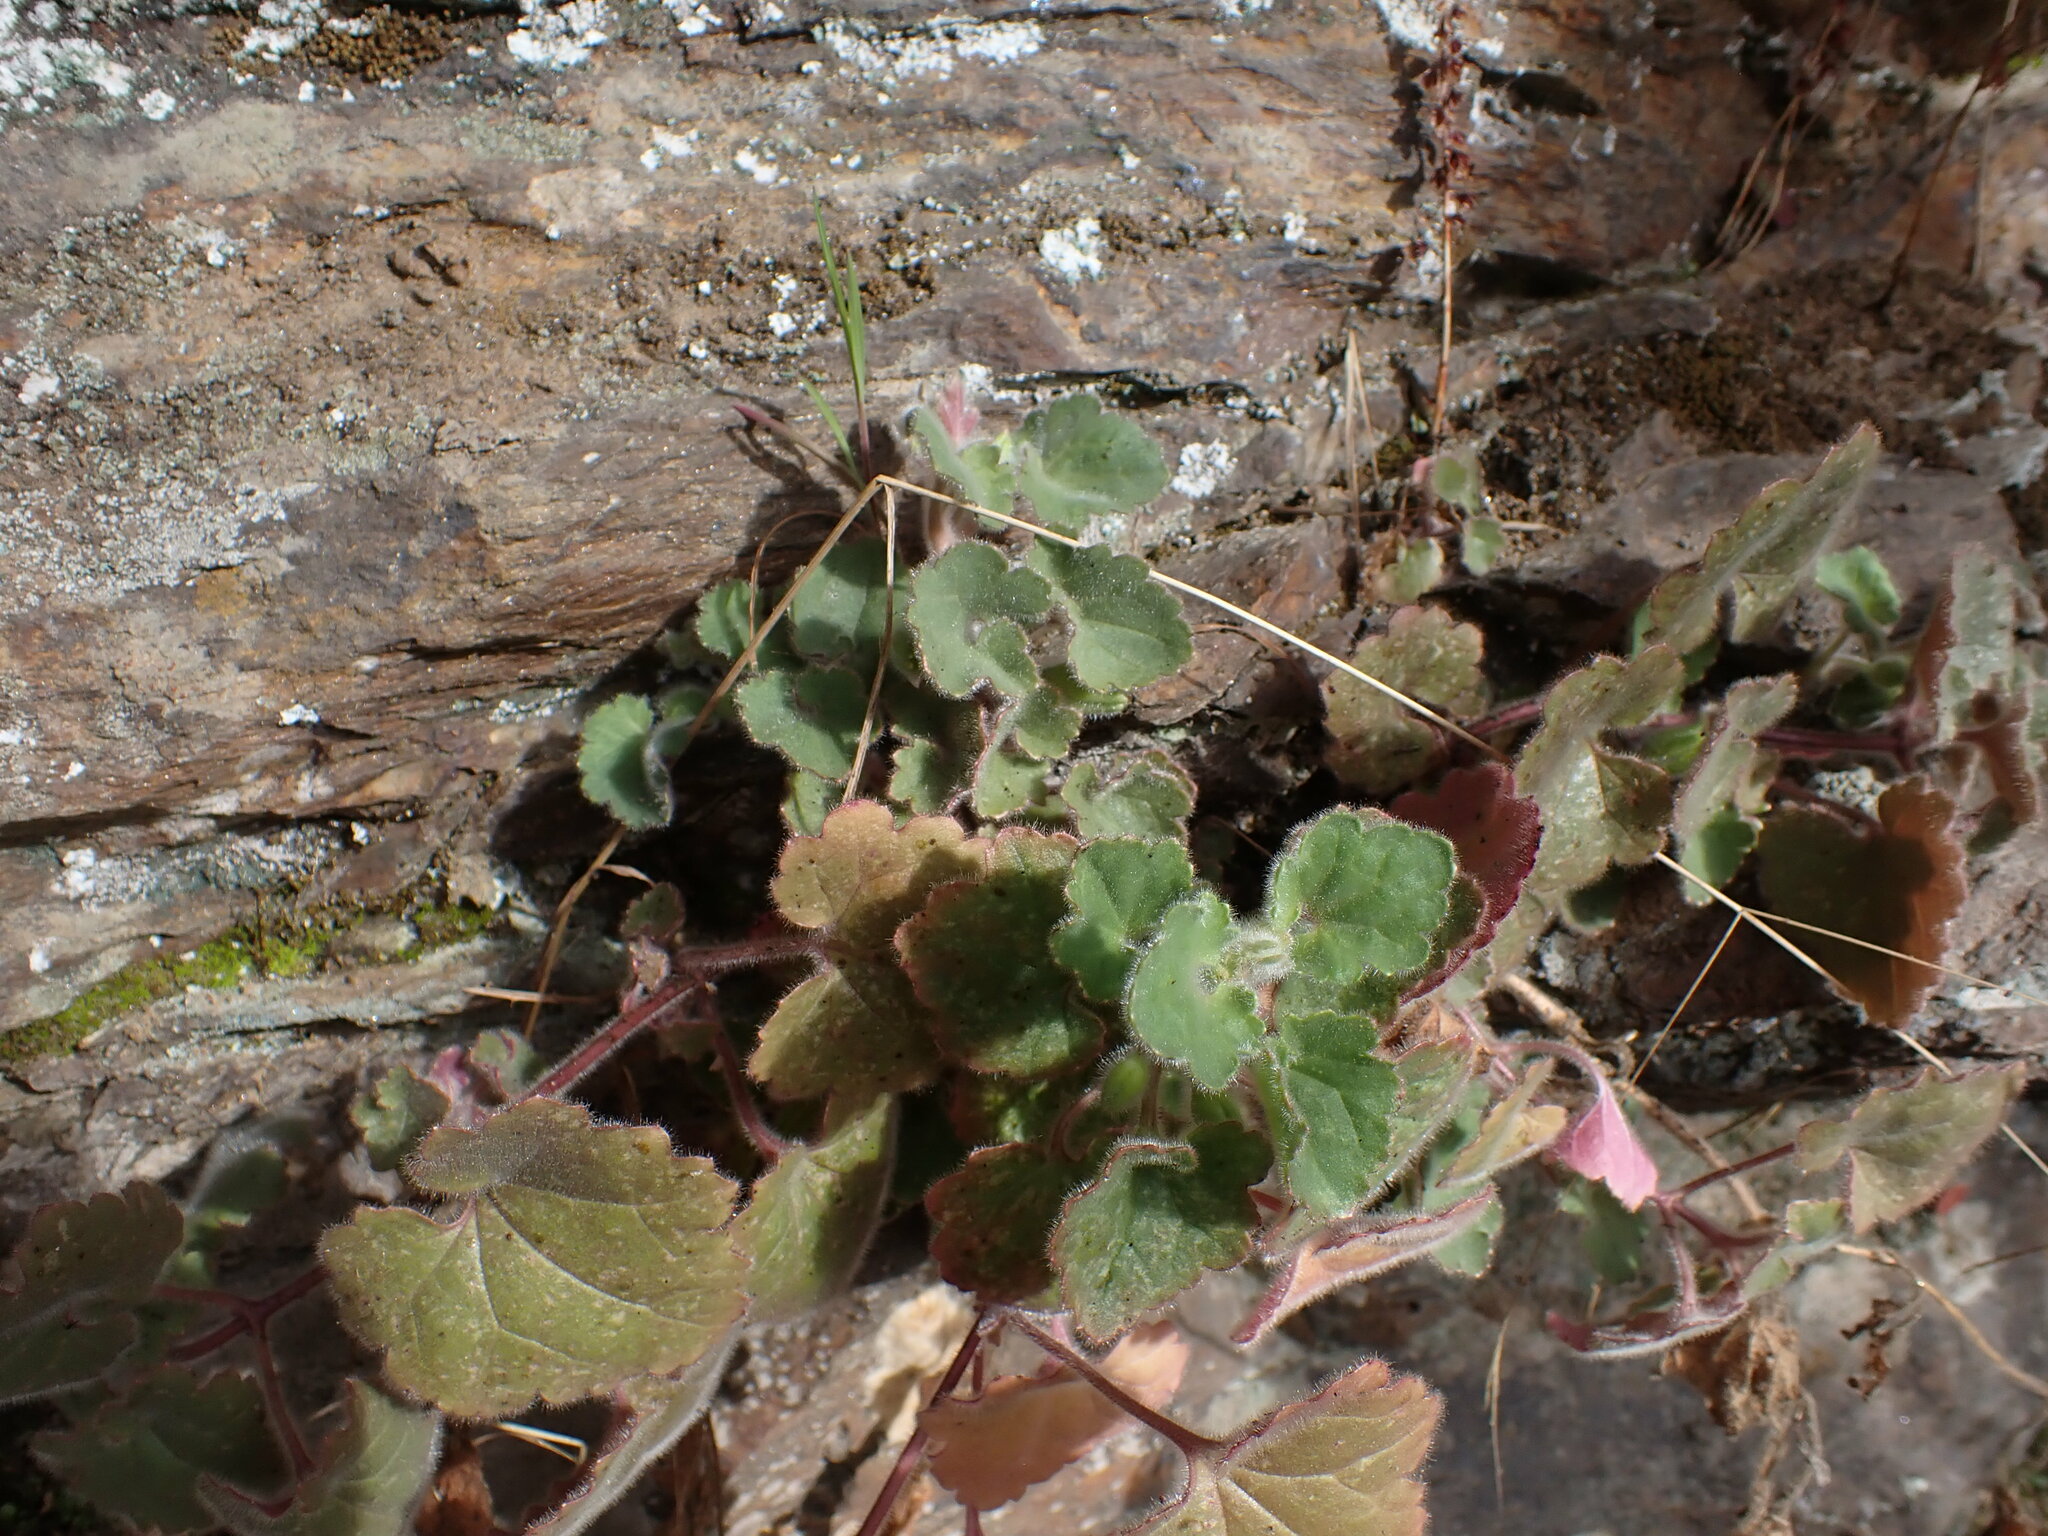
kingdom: Plantae
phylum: Tracheophyta
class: Magnoliopsida
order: Lamiales
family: Plantaginaceae
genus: Asarina
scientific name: Asarina procumbens
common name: Trailing snapdragon
